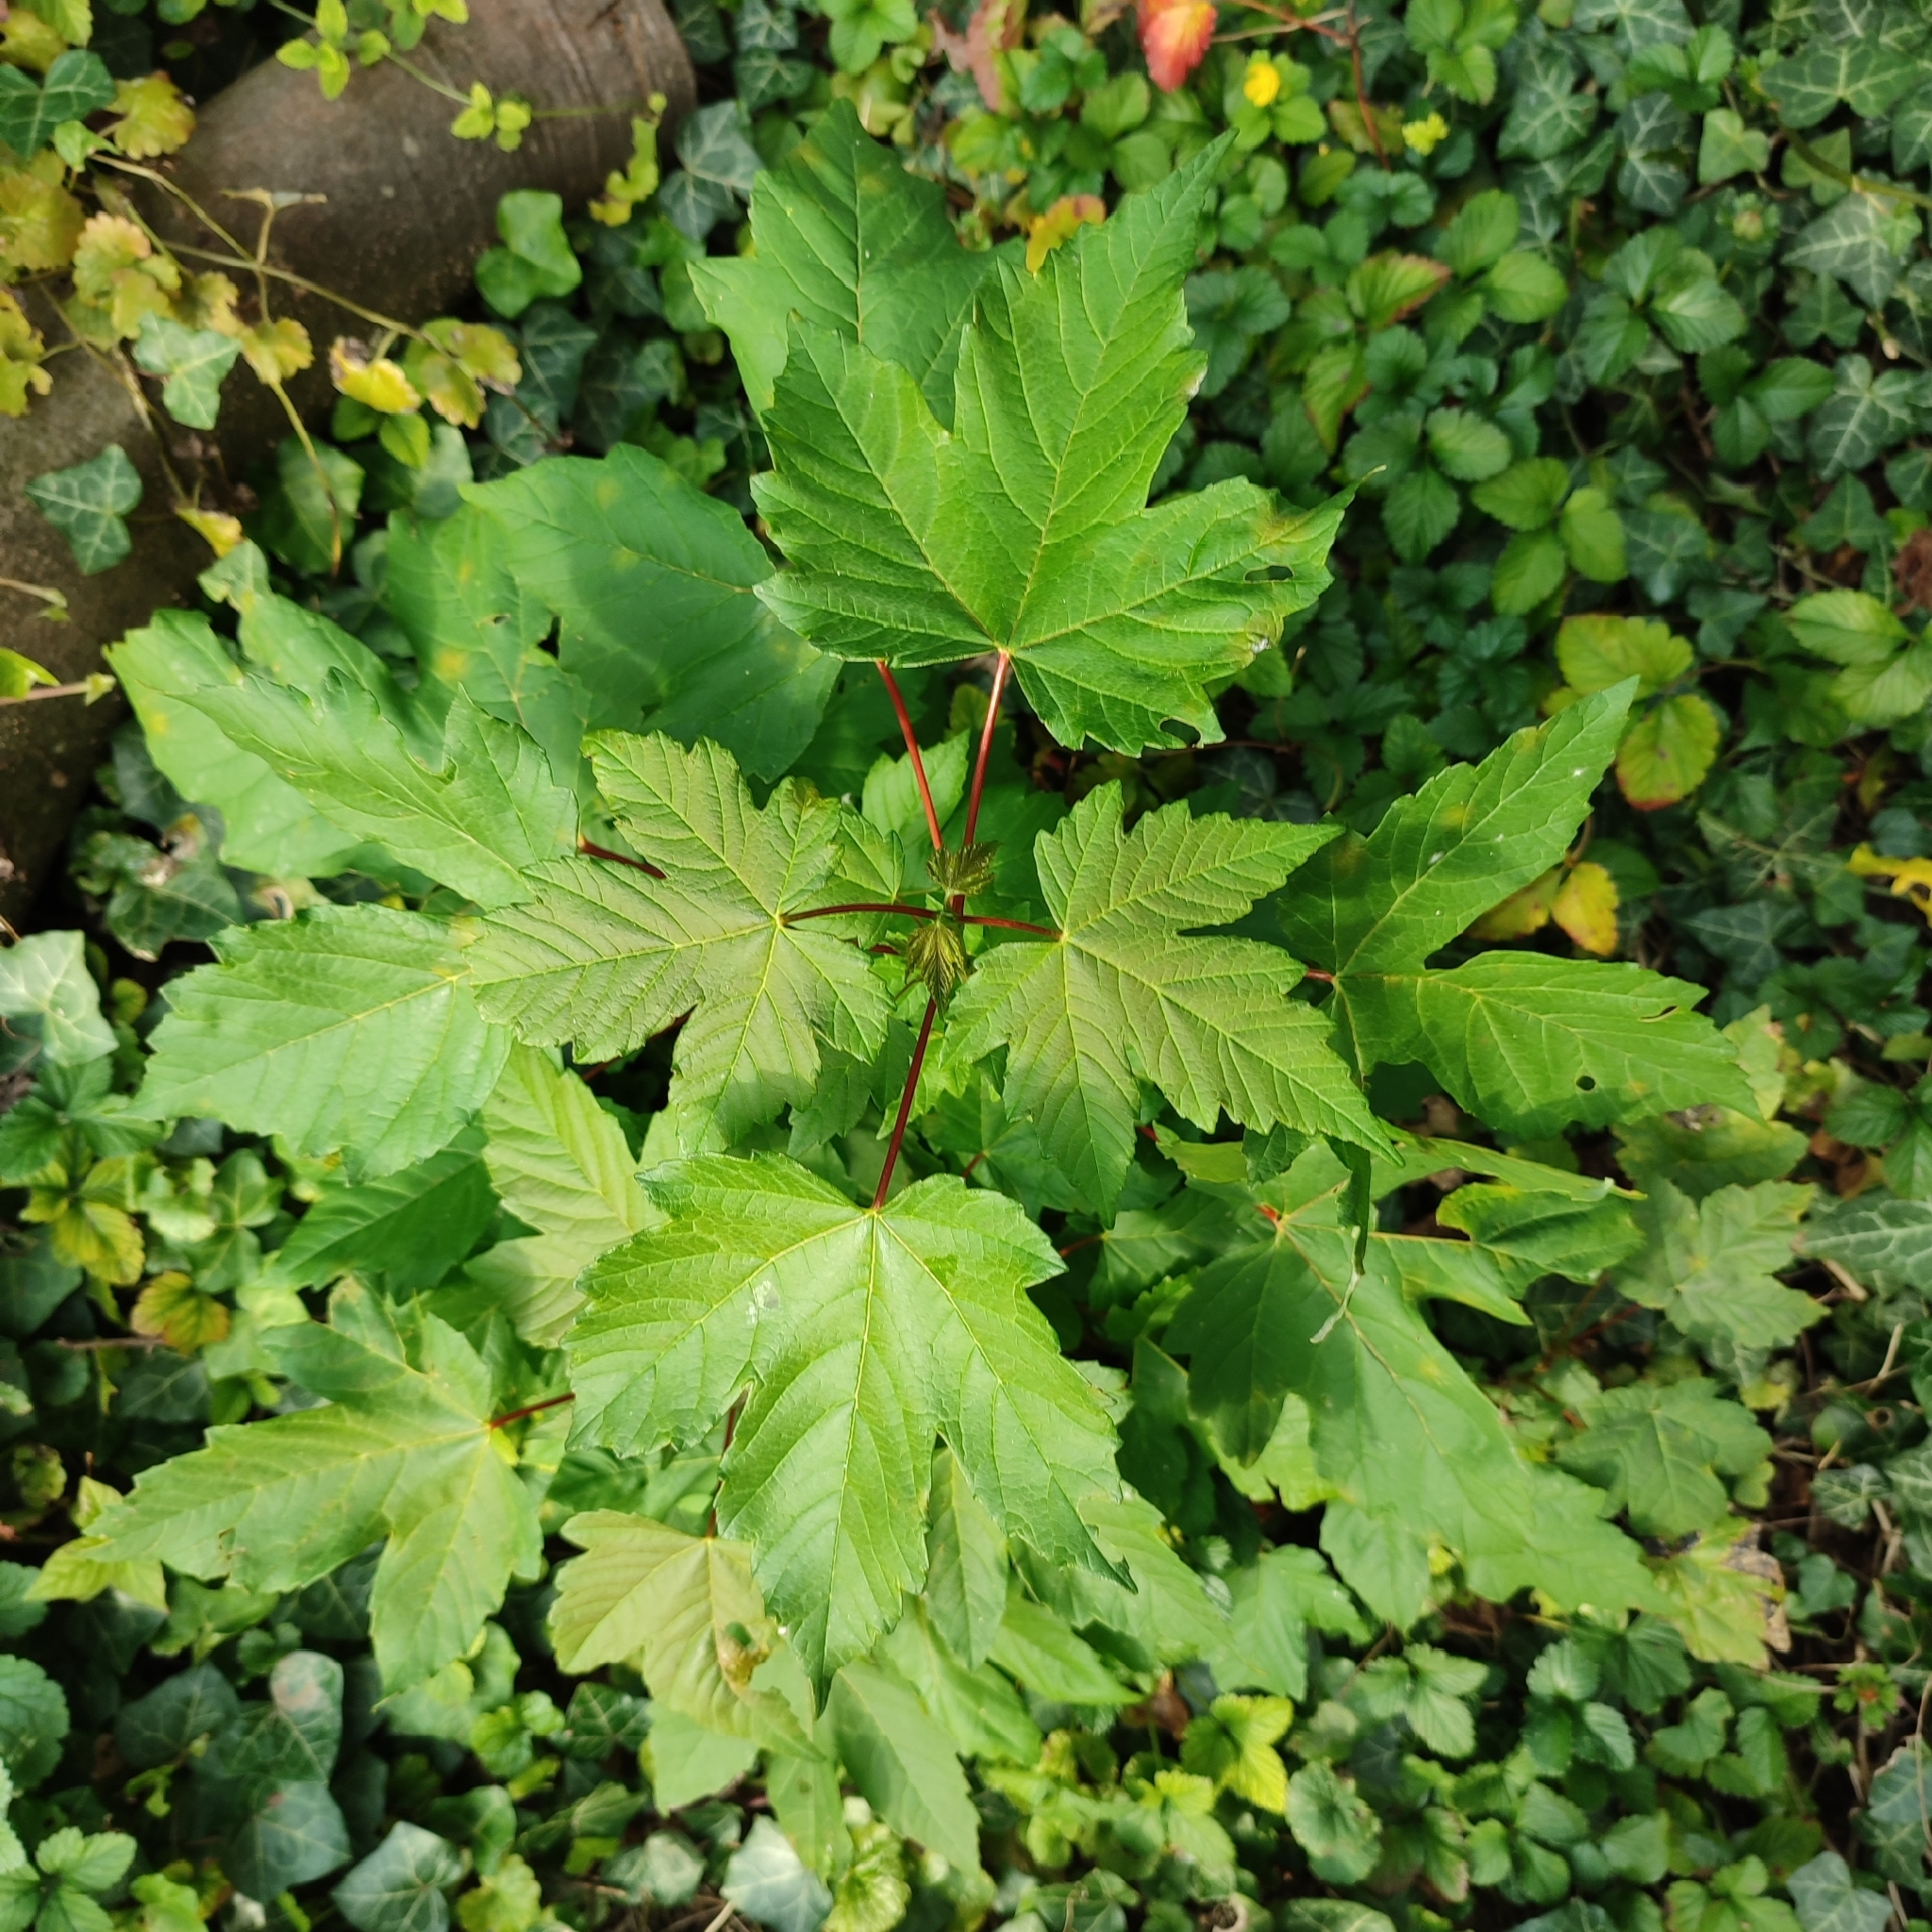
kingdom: Plantae
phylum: Tracheophyta
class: Magnoliopsida
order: Sapindales
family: Sapindaceae
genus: Acer
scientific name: Acer pseudoplatanus
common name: Sycamore
